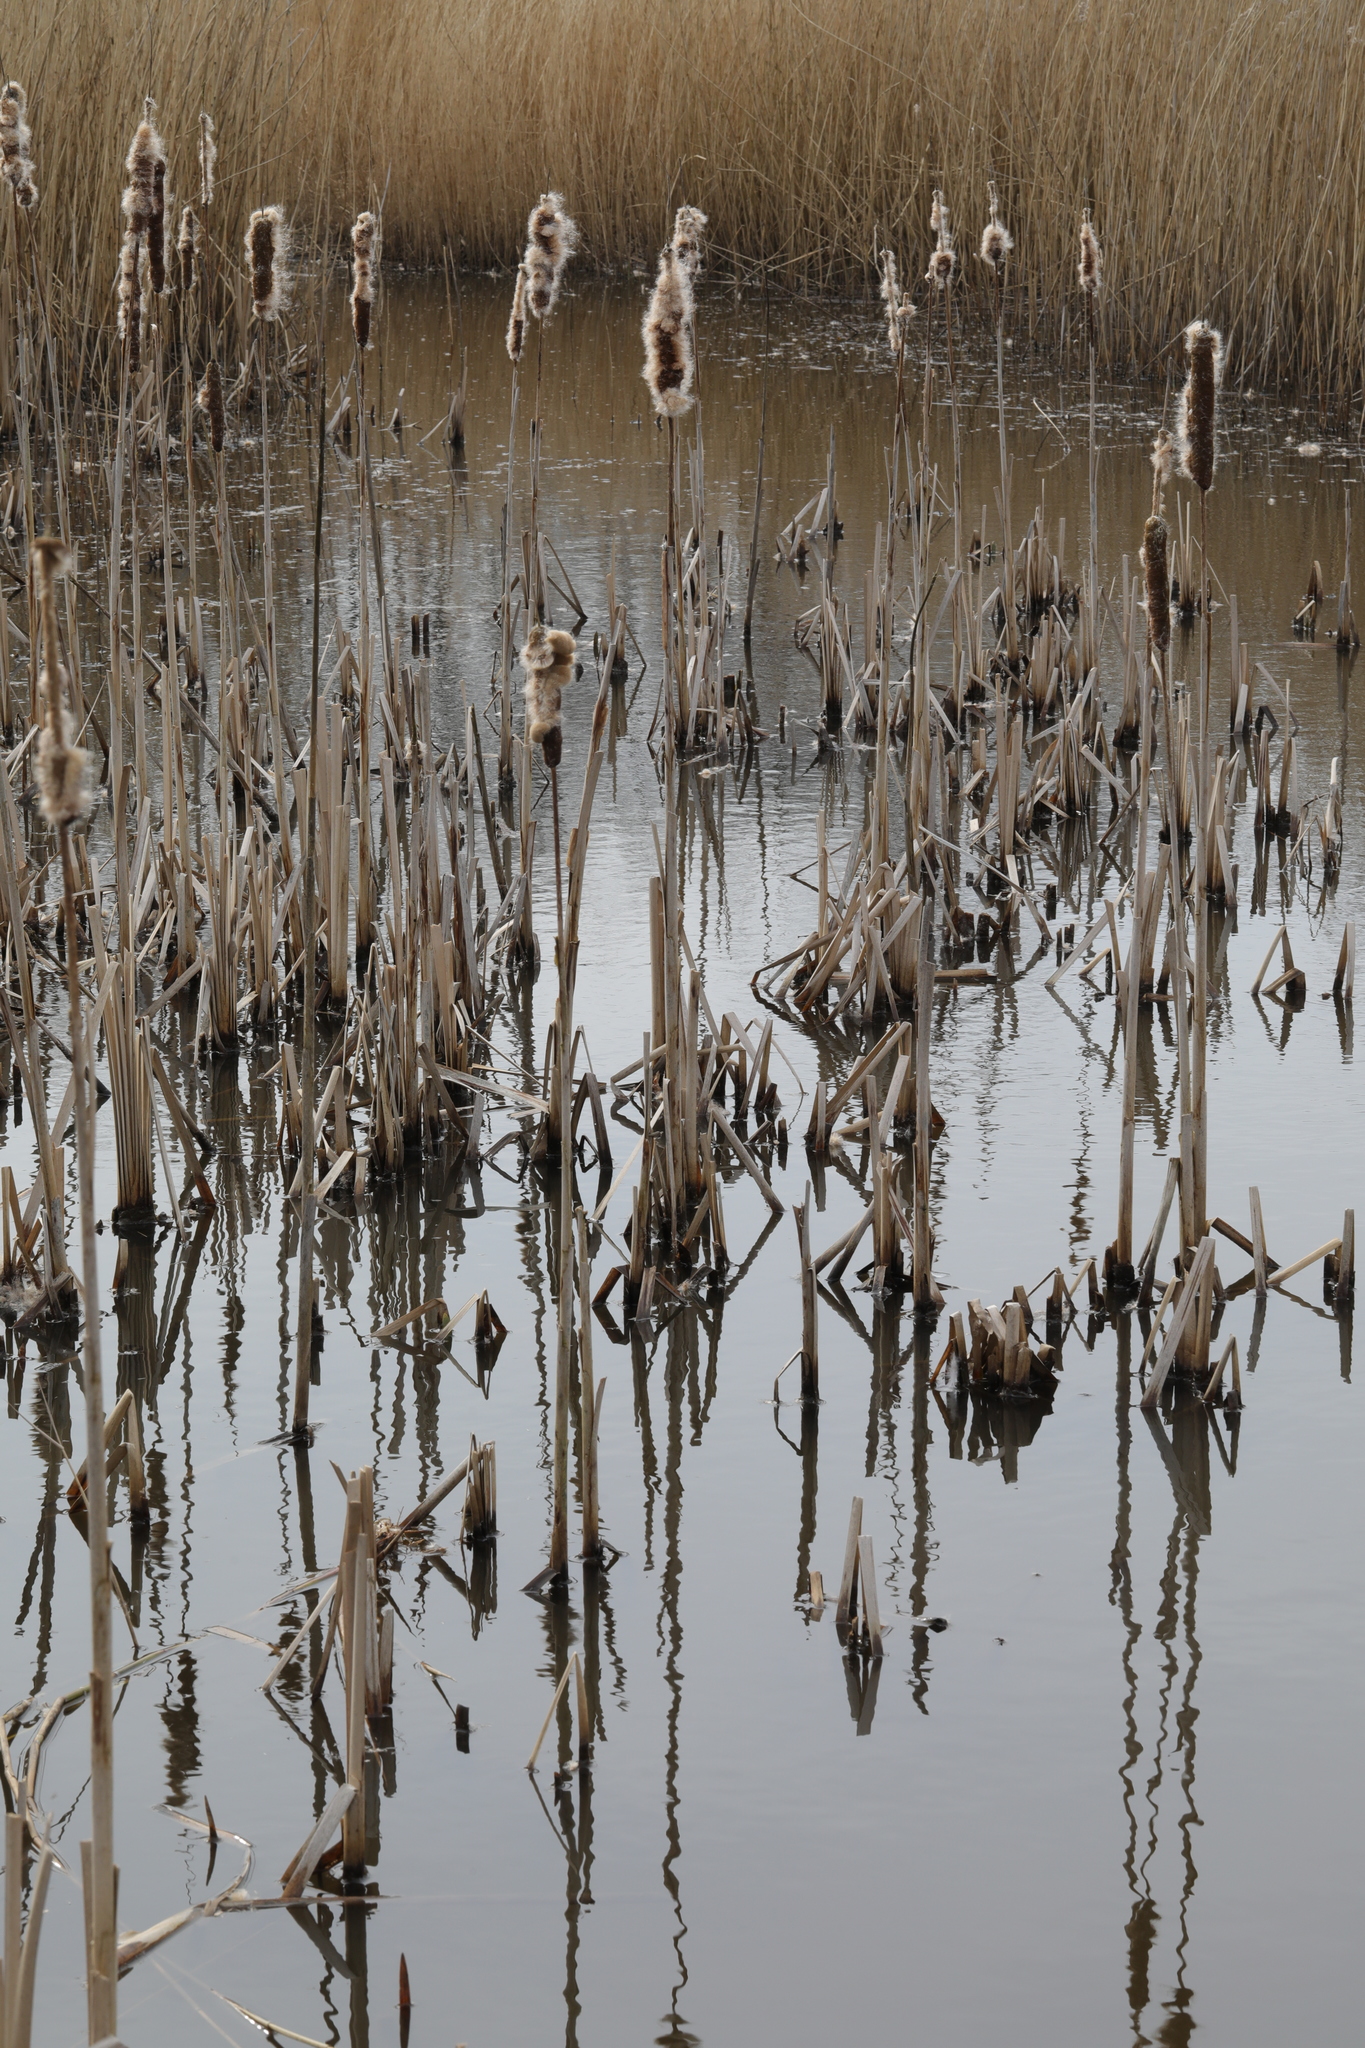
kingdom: Plantae
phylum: Tracheophyta
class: Liliopsida
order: Poales
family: Typhaceae
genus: Typha
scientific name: Typha latifolia
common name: Broadleaf cattail
